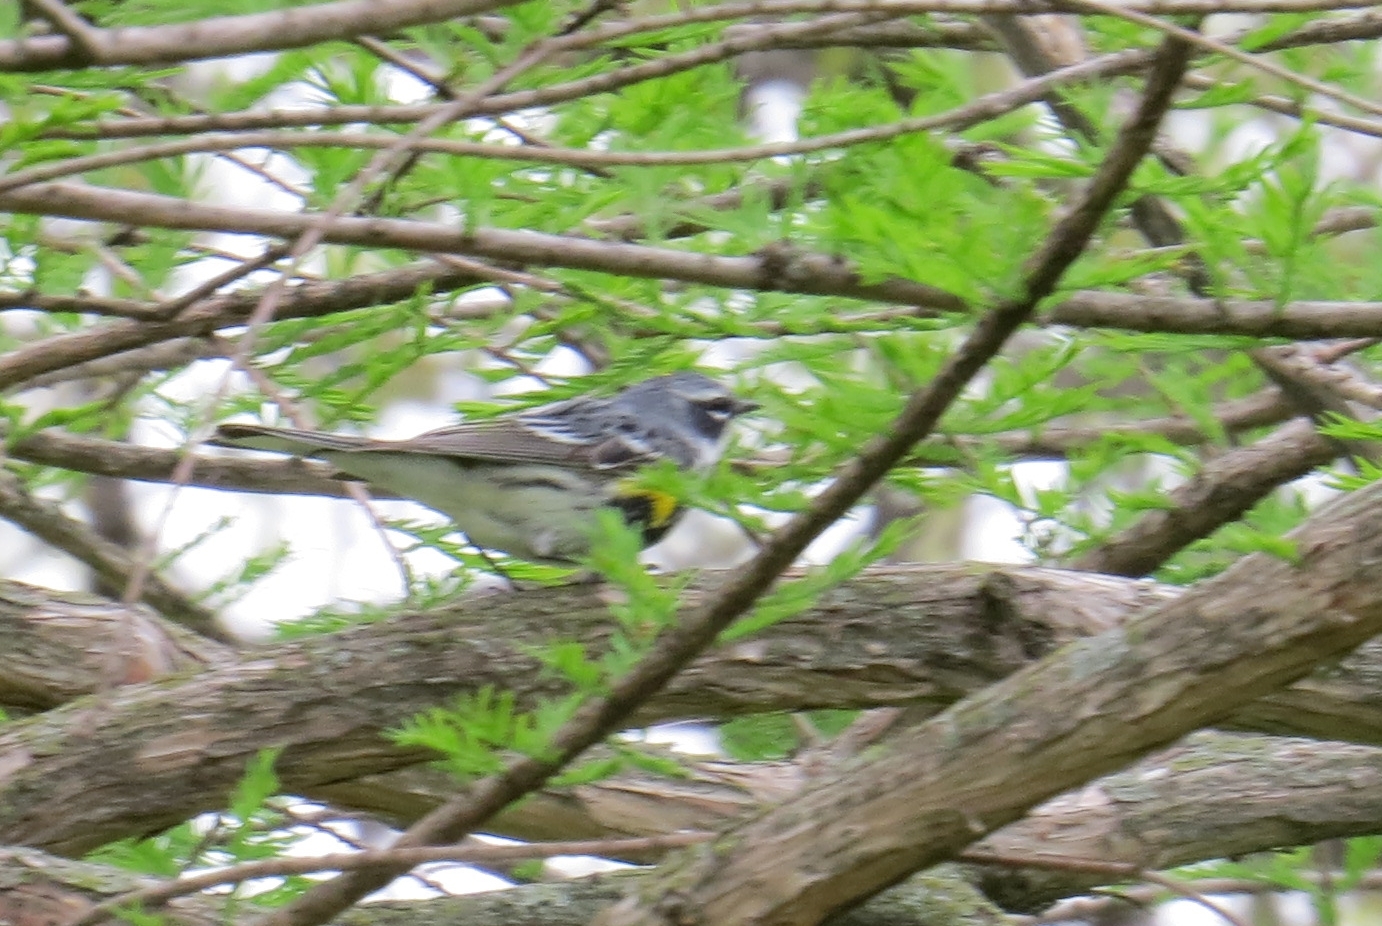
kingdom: Animalia
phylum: Chordata
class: Aves
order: Passeriformes
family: Parulidae
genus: Setophaga
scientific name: Setophaga coronata
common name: Myrtle warbler
